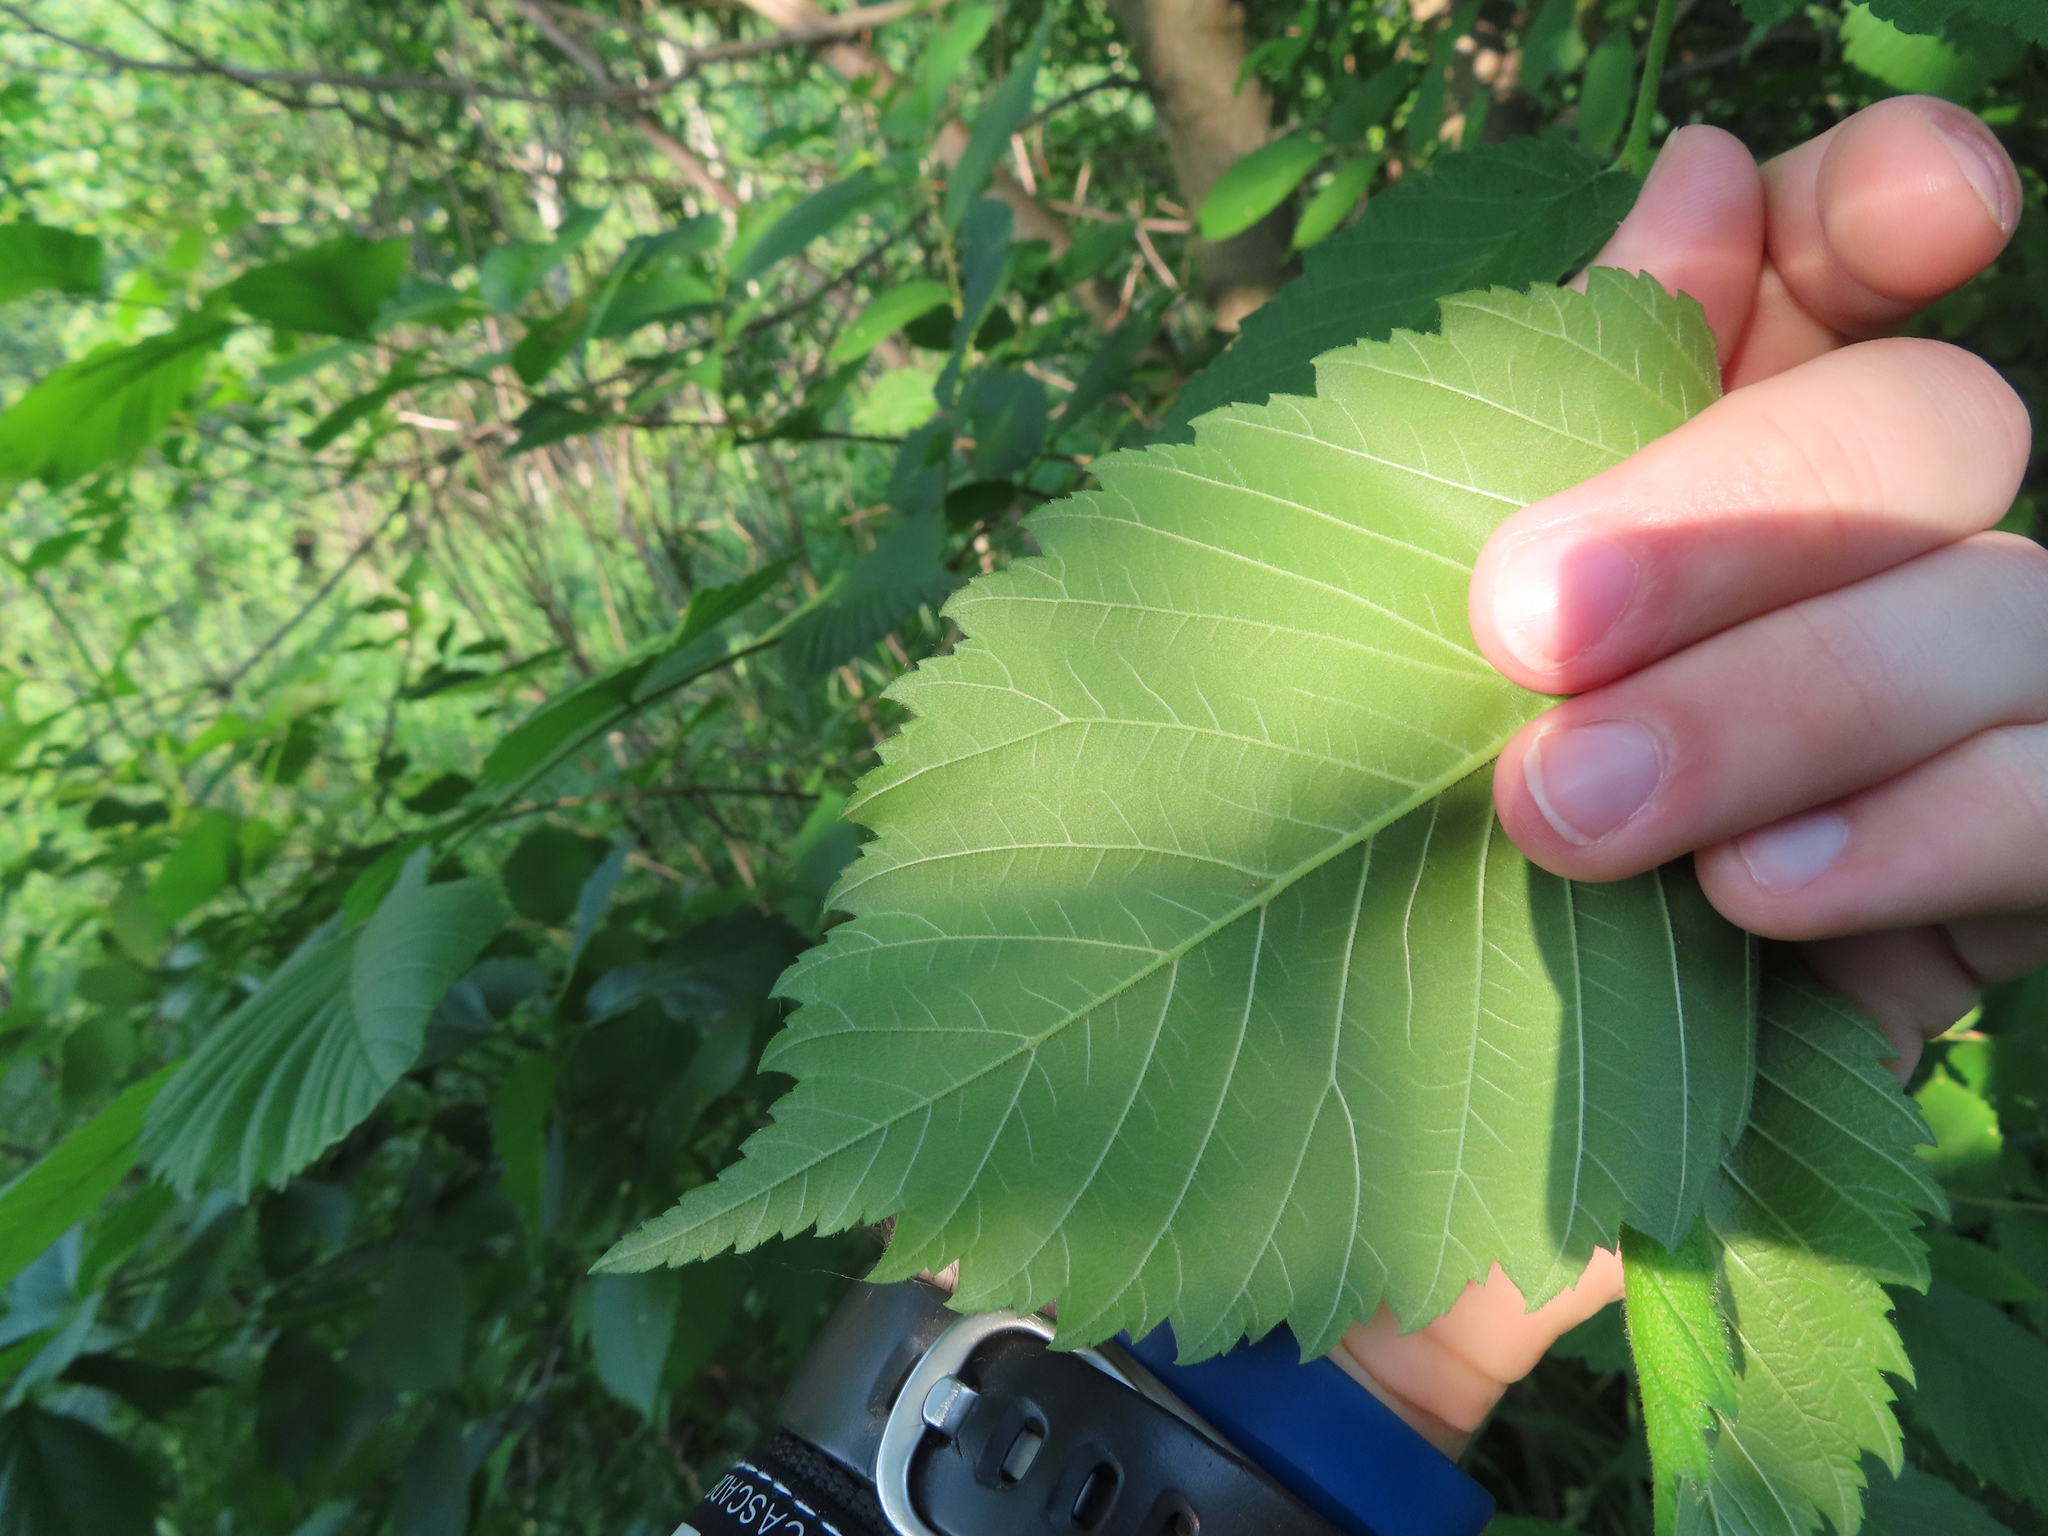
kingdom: Animalia
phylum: Arthropoda
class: Insecta
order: Diptera
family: Agromyzidae
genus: Agromyza
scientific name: Agromyza aristata
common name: Elm agromyzid leafminer
